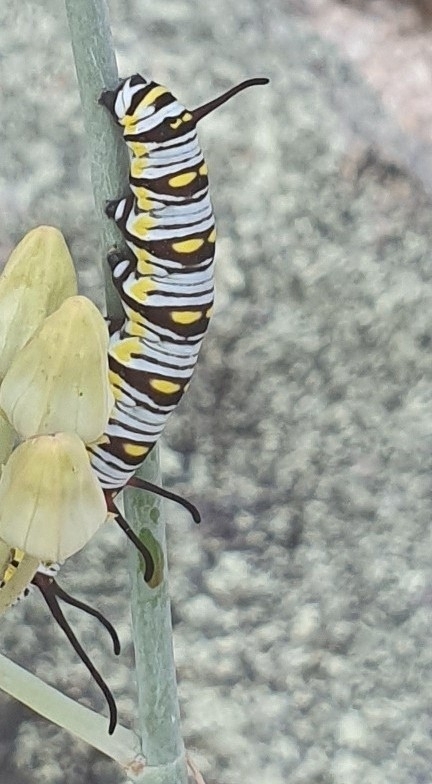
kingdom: Animalia
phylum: Arthropoda
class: Insecta
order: Lepidoptera
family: Nymphalidae
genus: Danaus
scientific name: Danaus gilippus
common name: Queen
